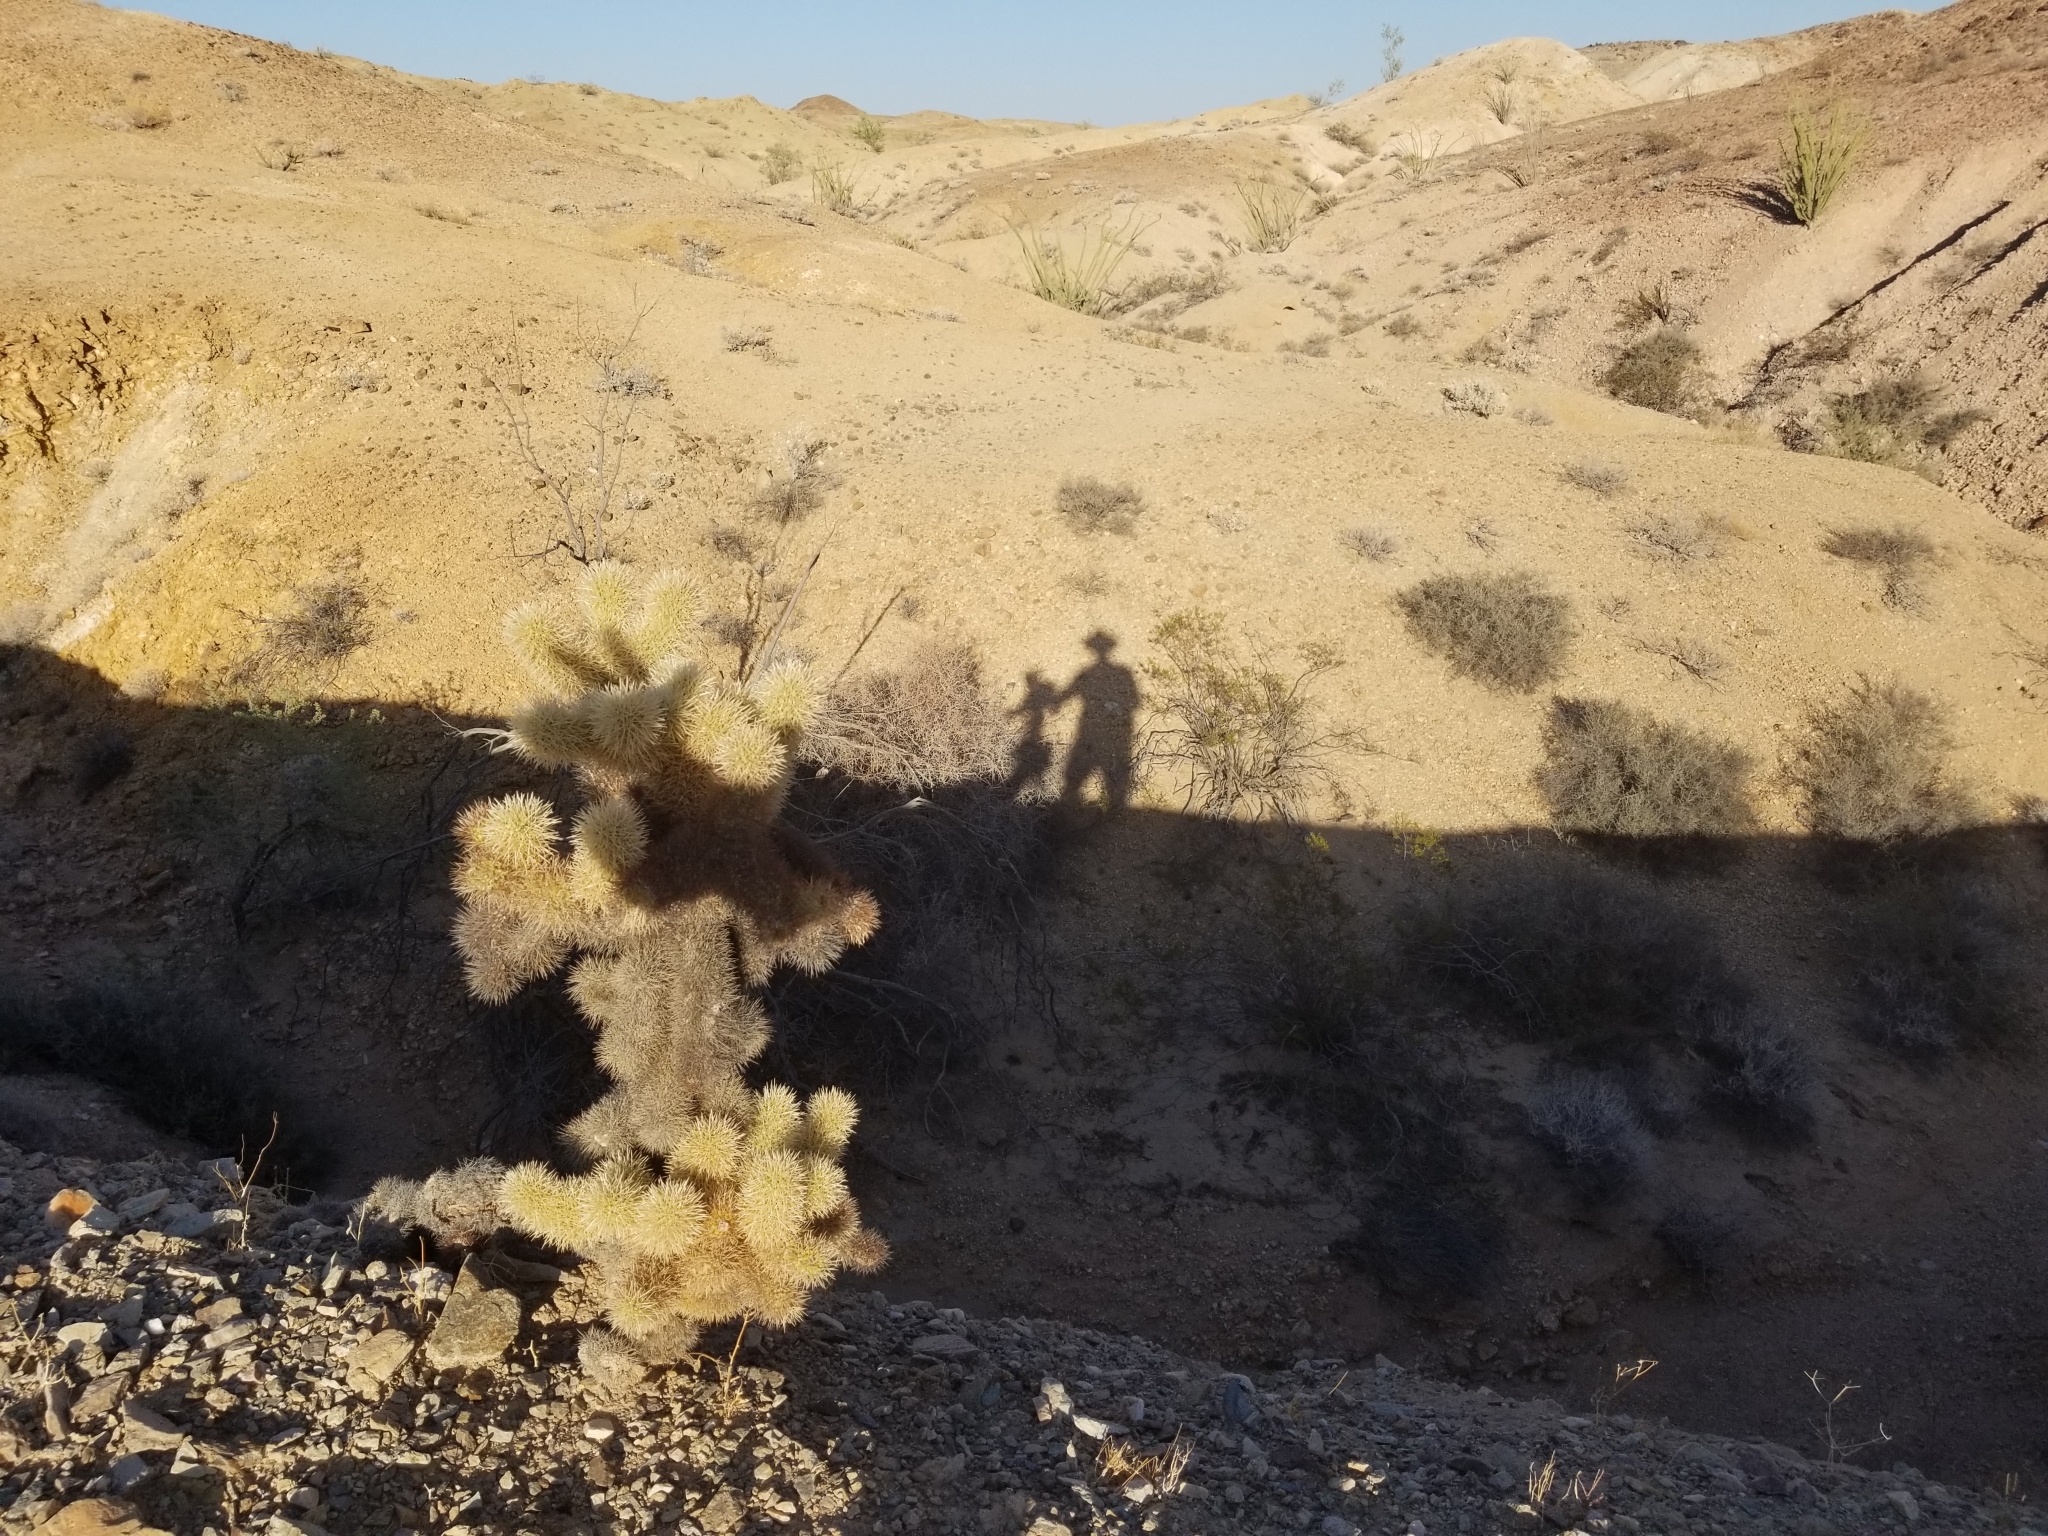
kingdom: Plantae
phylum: Tracheophyta
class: Magnoliopsida
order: Caryophyllales
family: Cactaceae
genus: Cylindropuntia
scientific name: Cylindropuntia fosbergii
